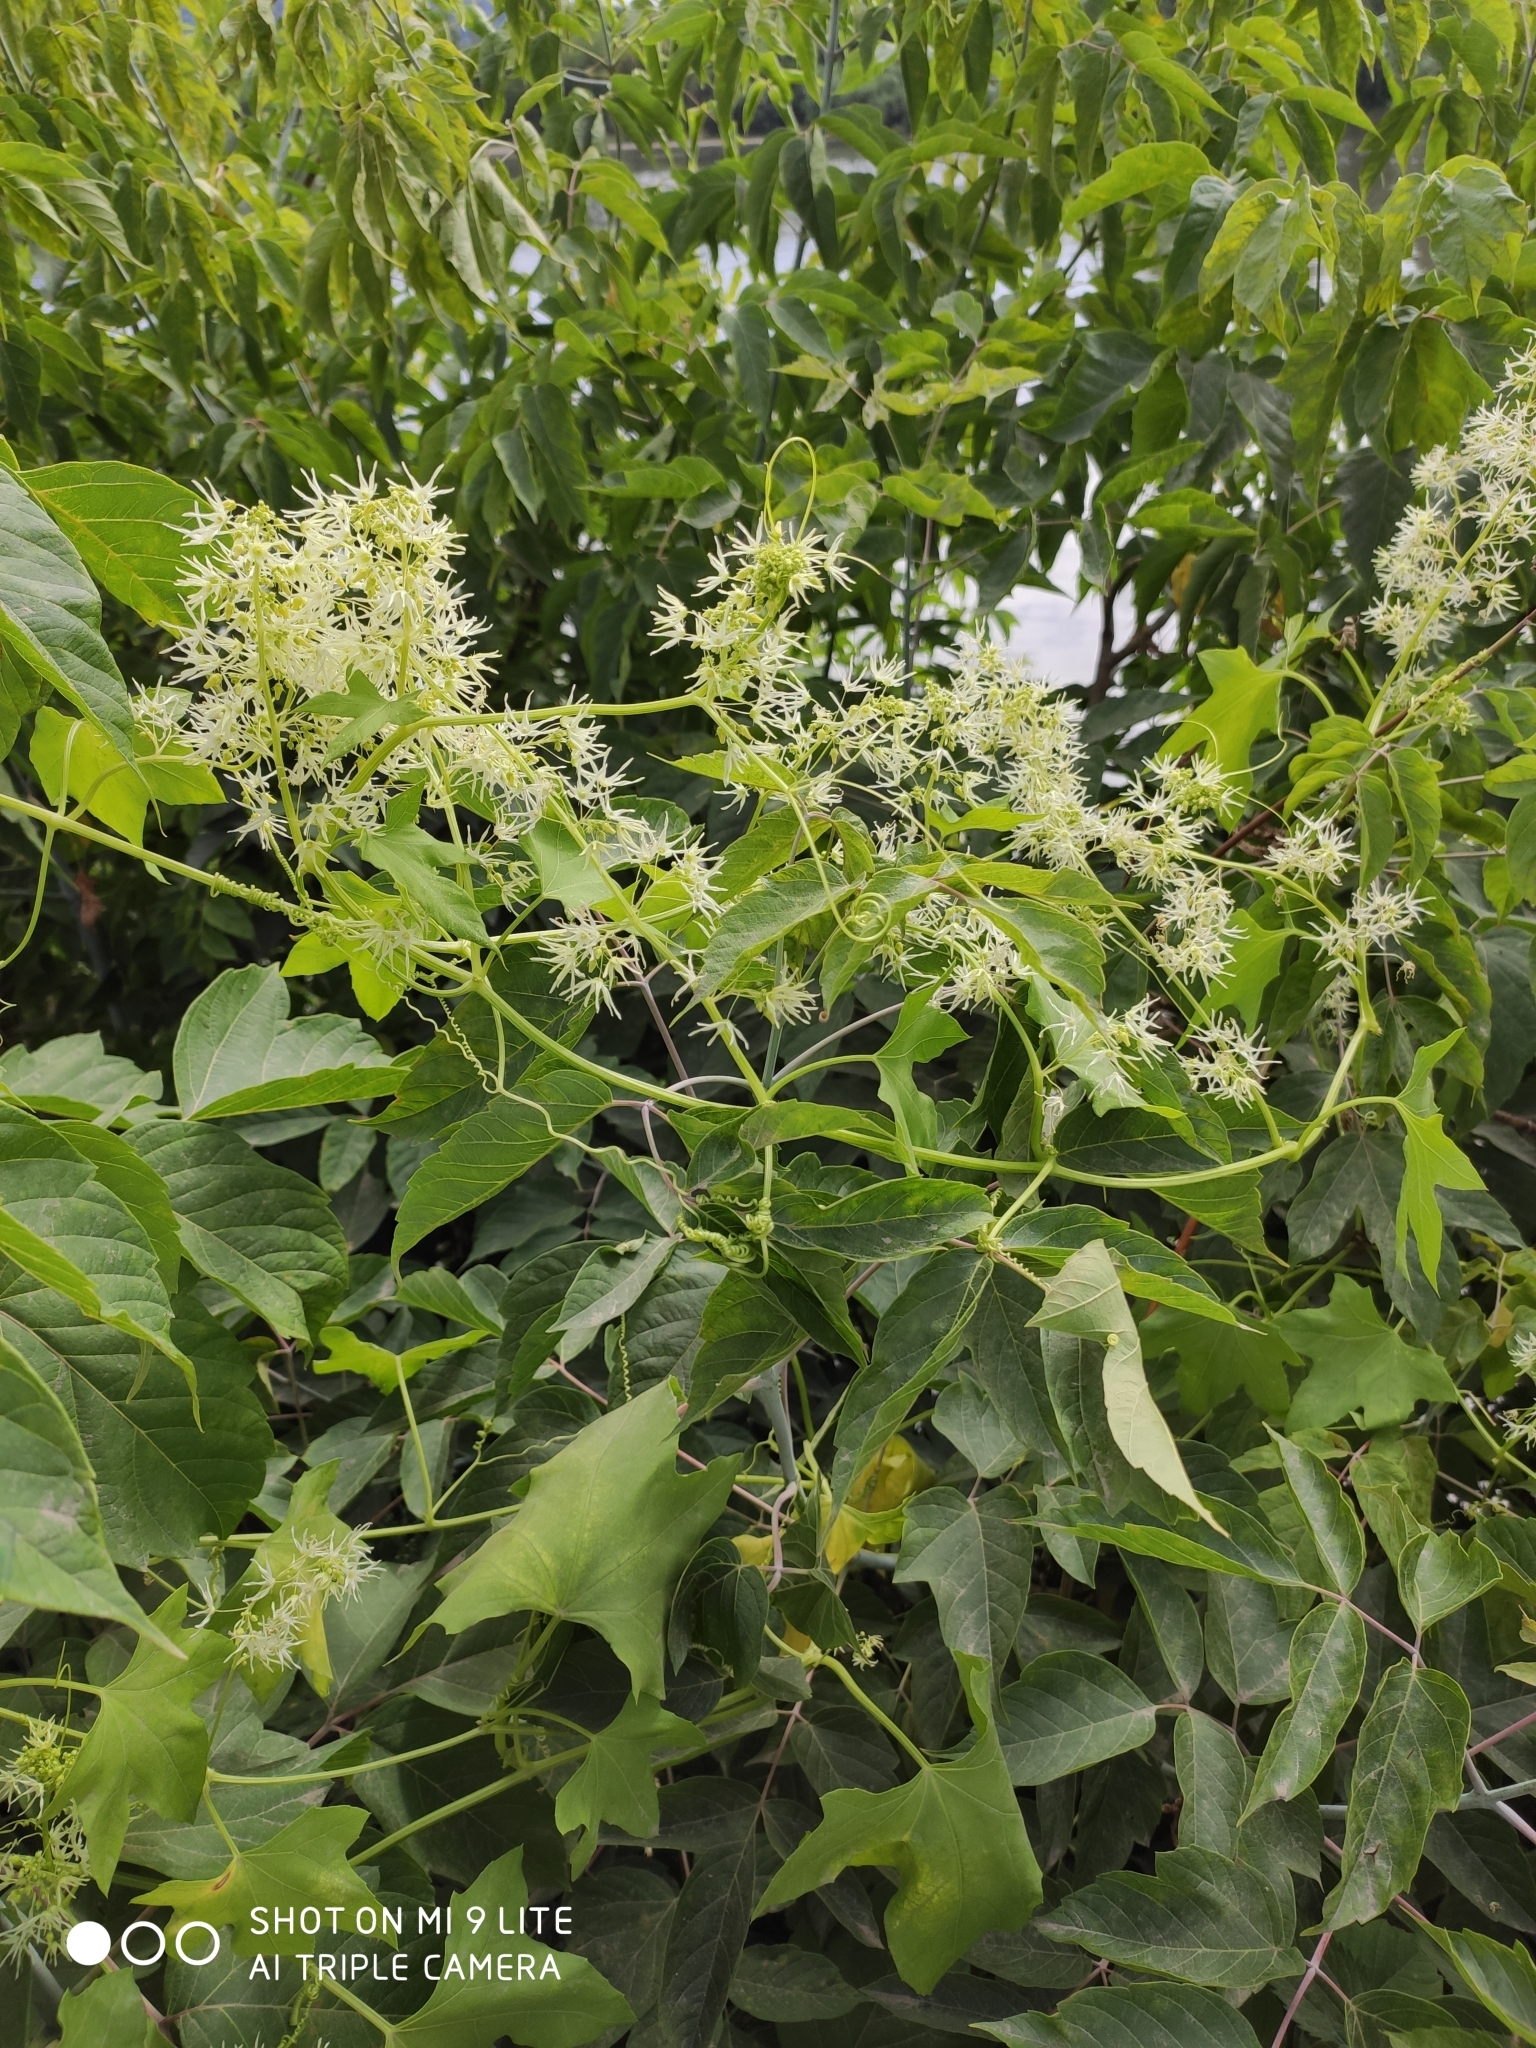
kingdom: Plantae
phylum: Tracheophyta
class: Magnoliopsida
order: Cucurbitales
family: Cucurbitaceae
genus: Echinocystis
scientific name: Echinocystis lobata
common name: Wild cucumber
